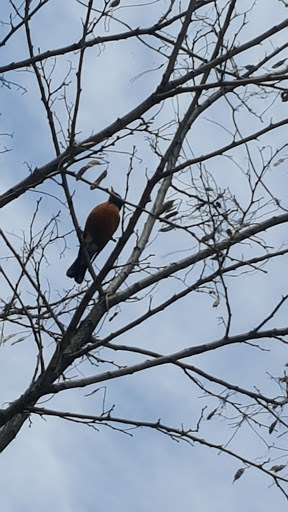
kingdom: Animalia
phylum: Chordata
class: Aves
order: Passeriformes
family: Turdidae
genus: Turdus
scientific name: Turdus migratorius
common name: American robin
